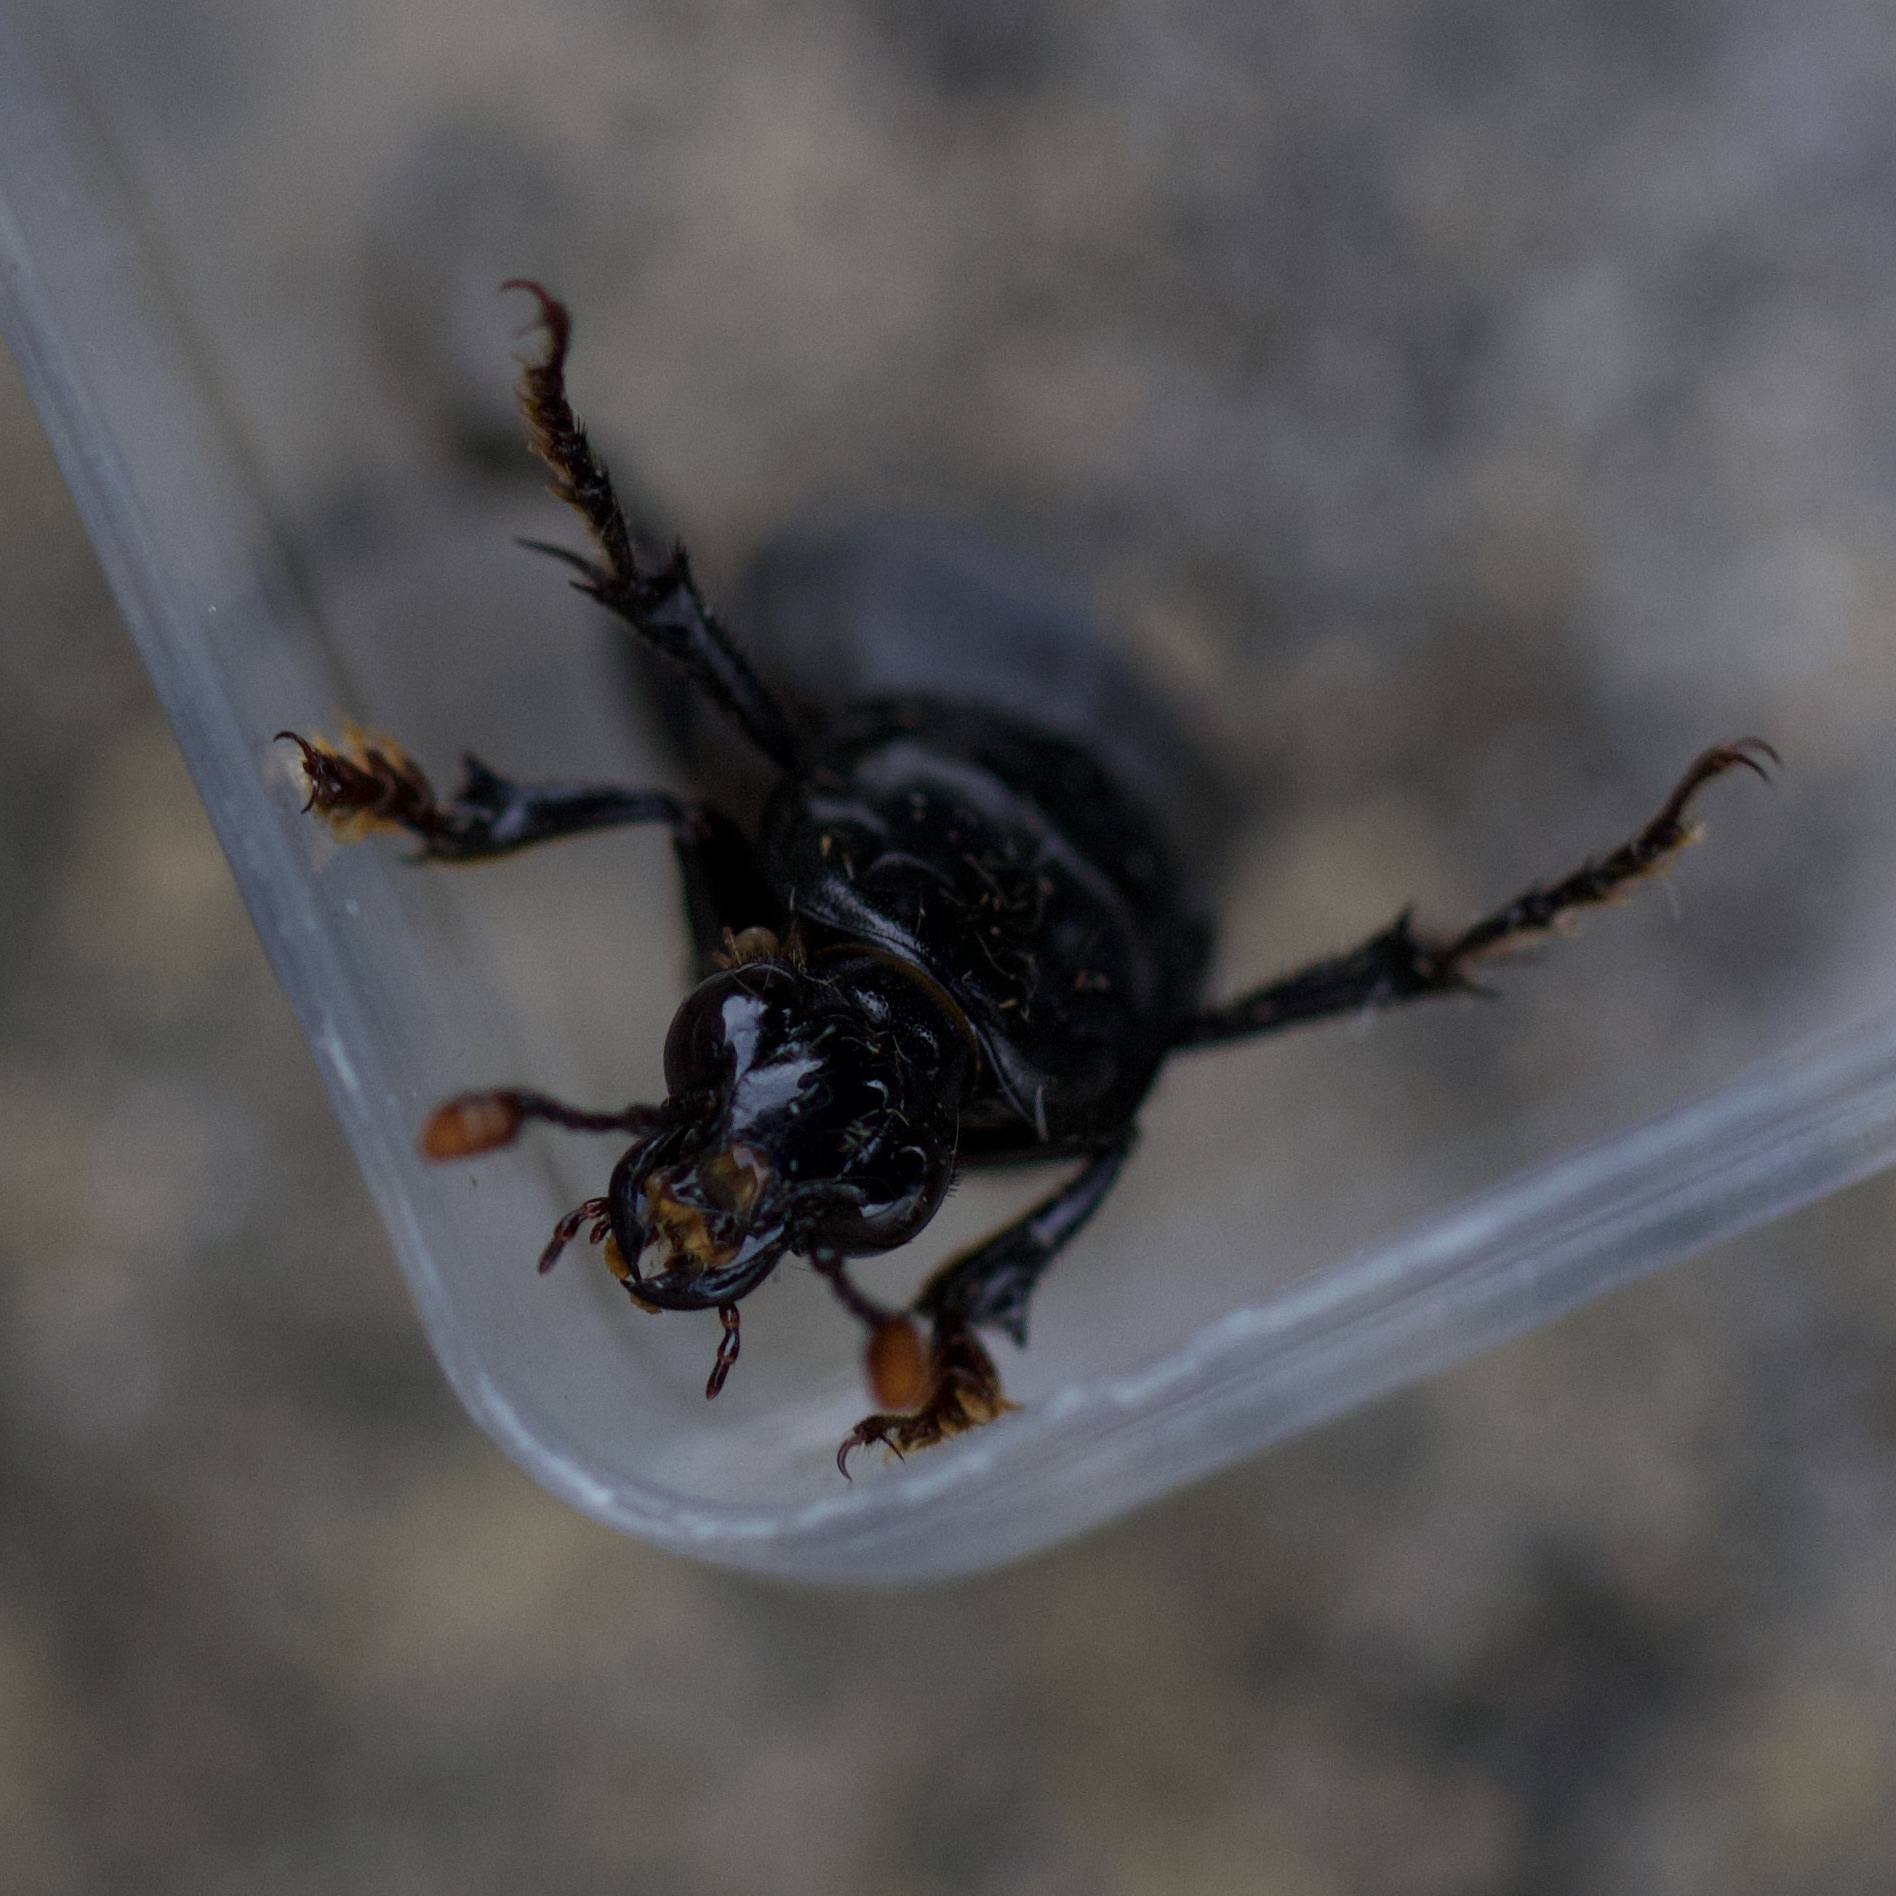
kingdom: Animalia
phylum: Arthropoda
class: Insecta
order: Coleoptera
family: Staphylinidae
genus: Nicrophorus
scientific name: Nicrophorus humator
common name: Black sexton beetle
